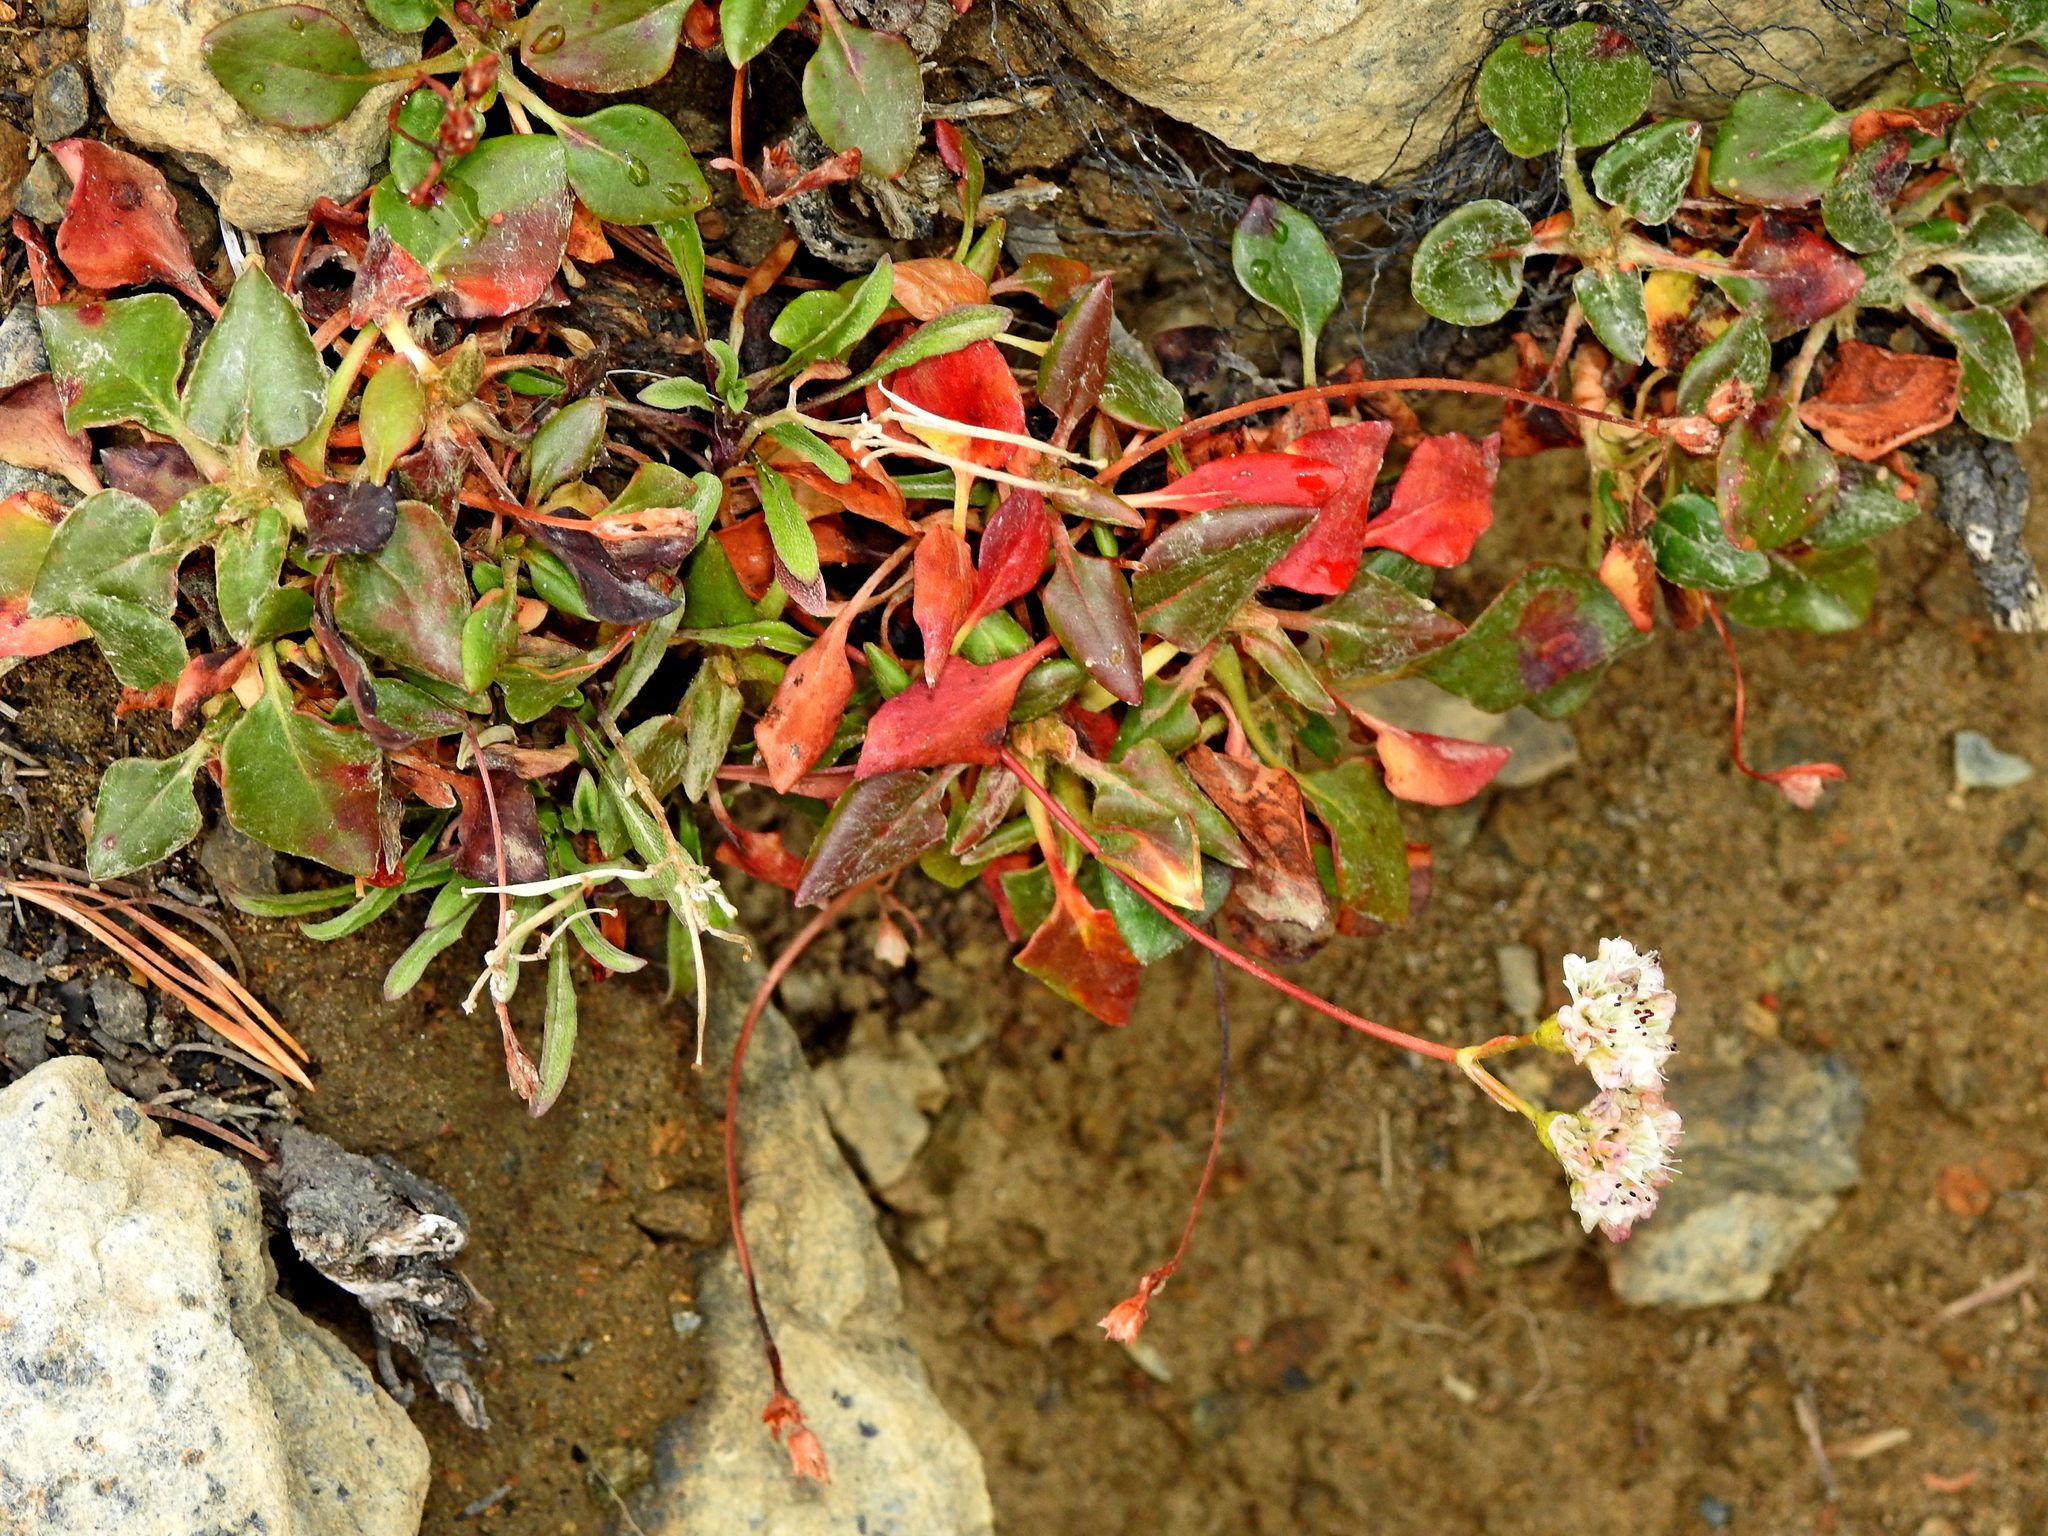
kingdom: Plantae
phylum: Tracheophyta
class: Magnoliopsida
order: Caryophyllales
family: Polygonaceae
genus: Eriogonum
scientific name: Eriogonum pyrolifolium
